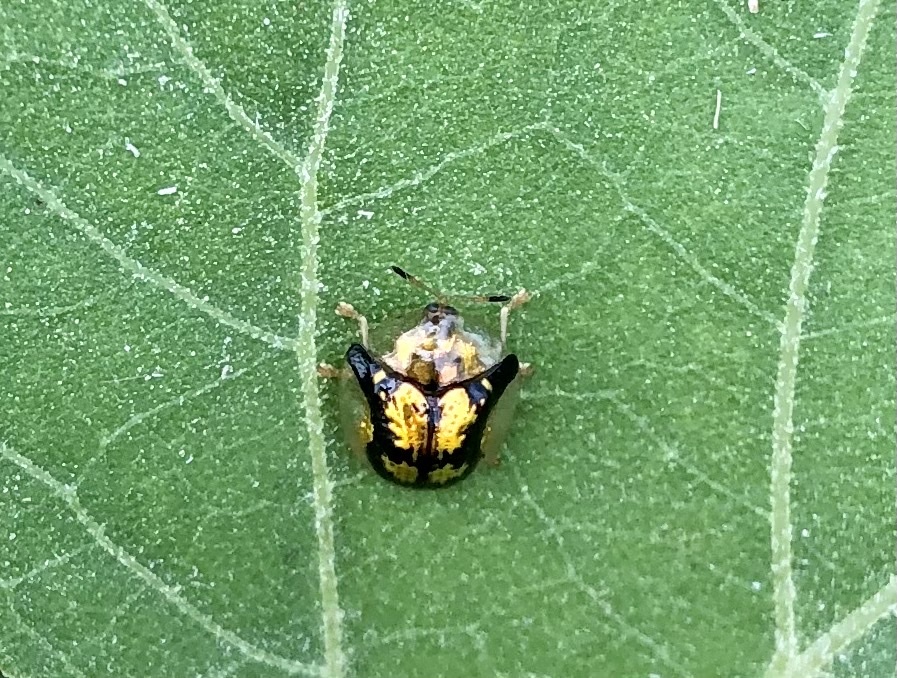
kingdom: Animalia
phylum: Arthropoda
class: Insecta
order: Coleoptera
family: Chrysomelidae
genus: Deloyala
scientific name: Deloyala guttata
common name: Mottled tortoise beetle
